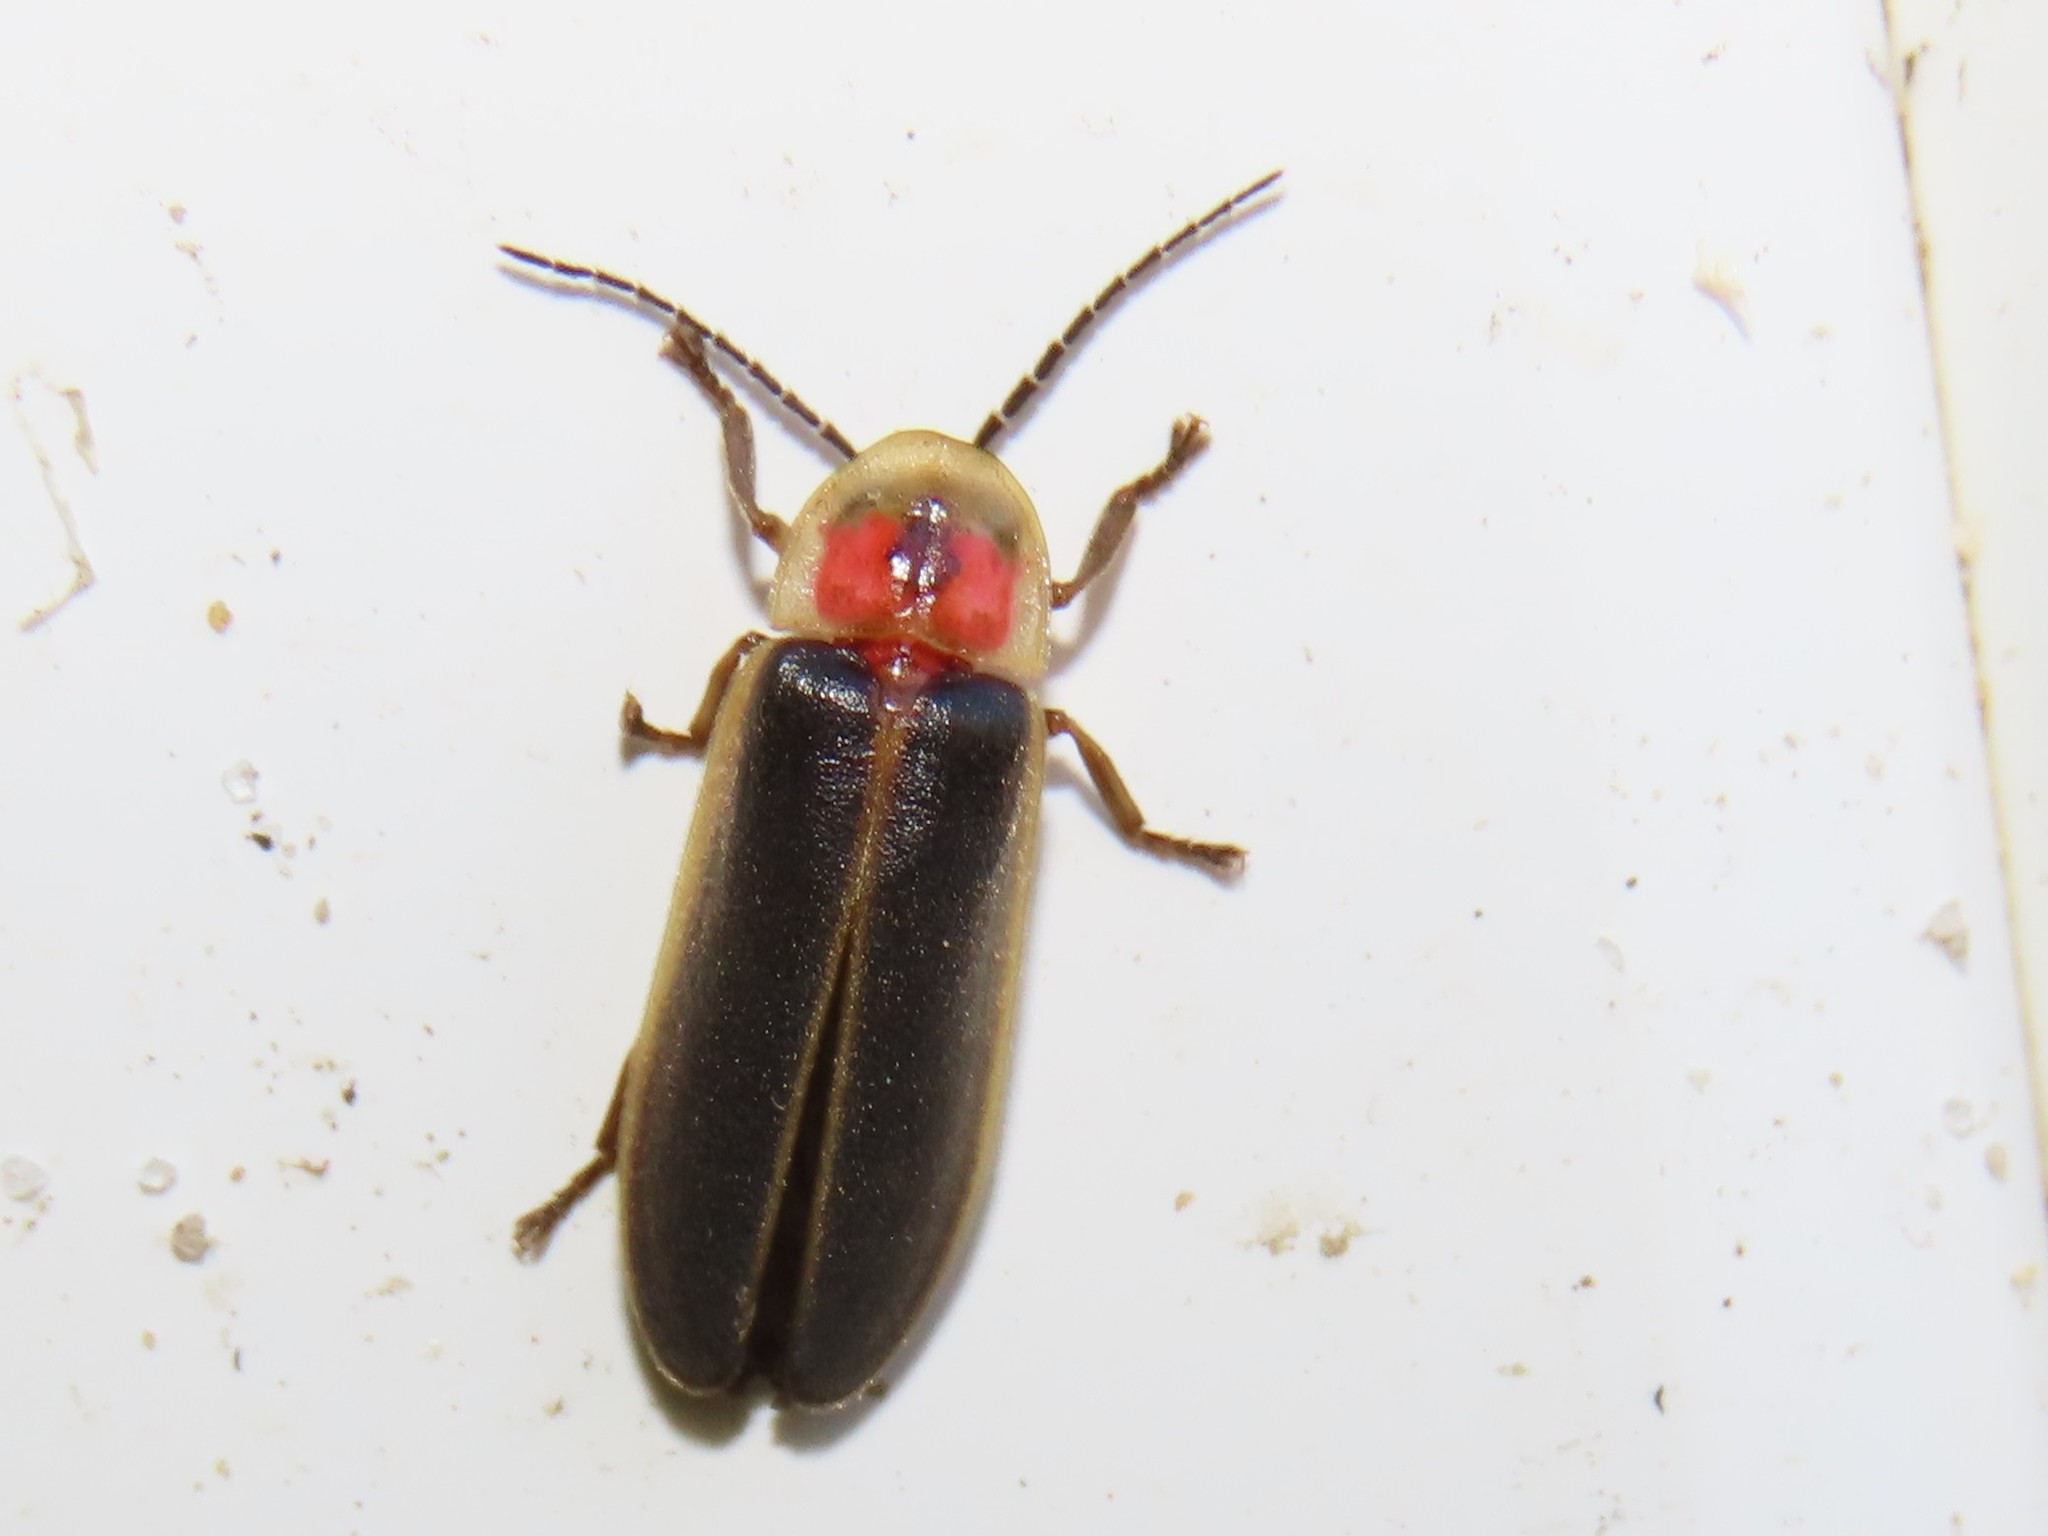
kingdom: Animalia
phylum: Arthropoda
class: Insecta
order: Coleoptera
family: Lampyridae
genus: Photinus
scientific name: Photinus pyralis
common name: Big dipper firefly
